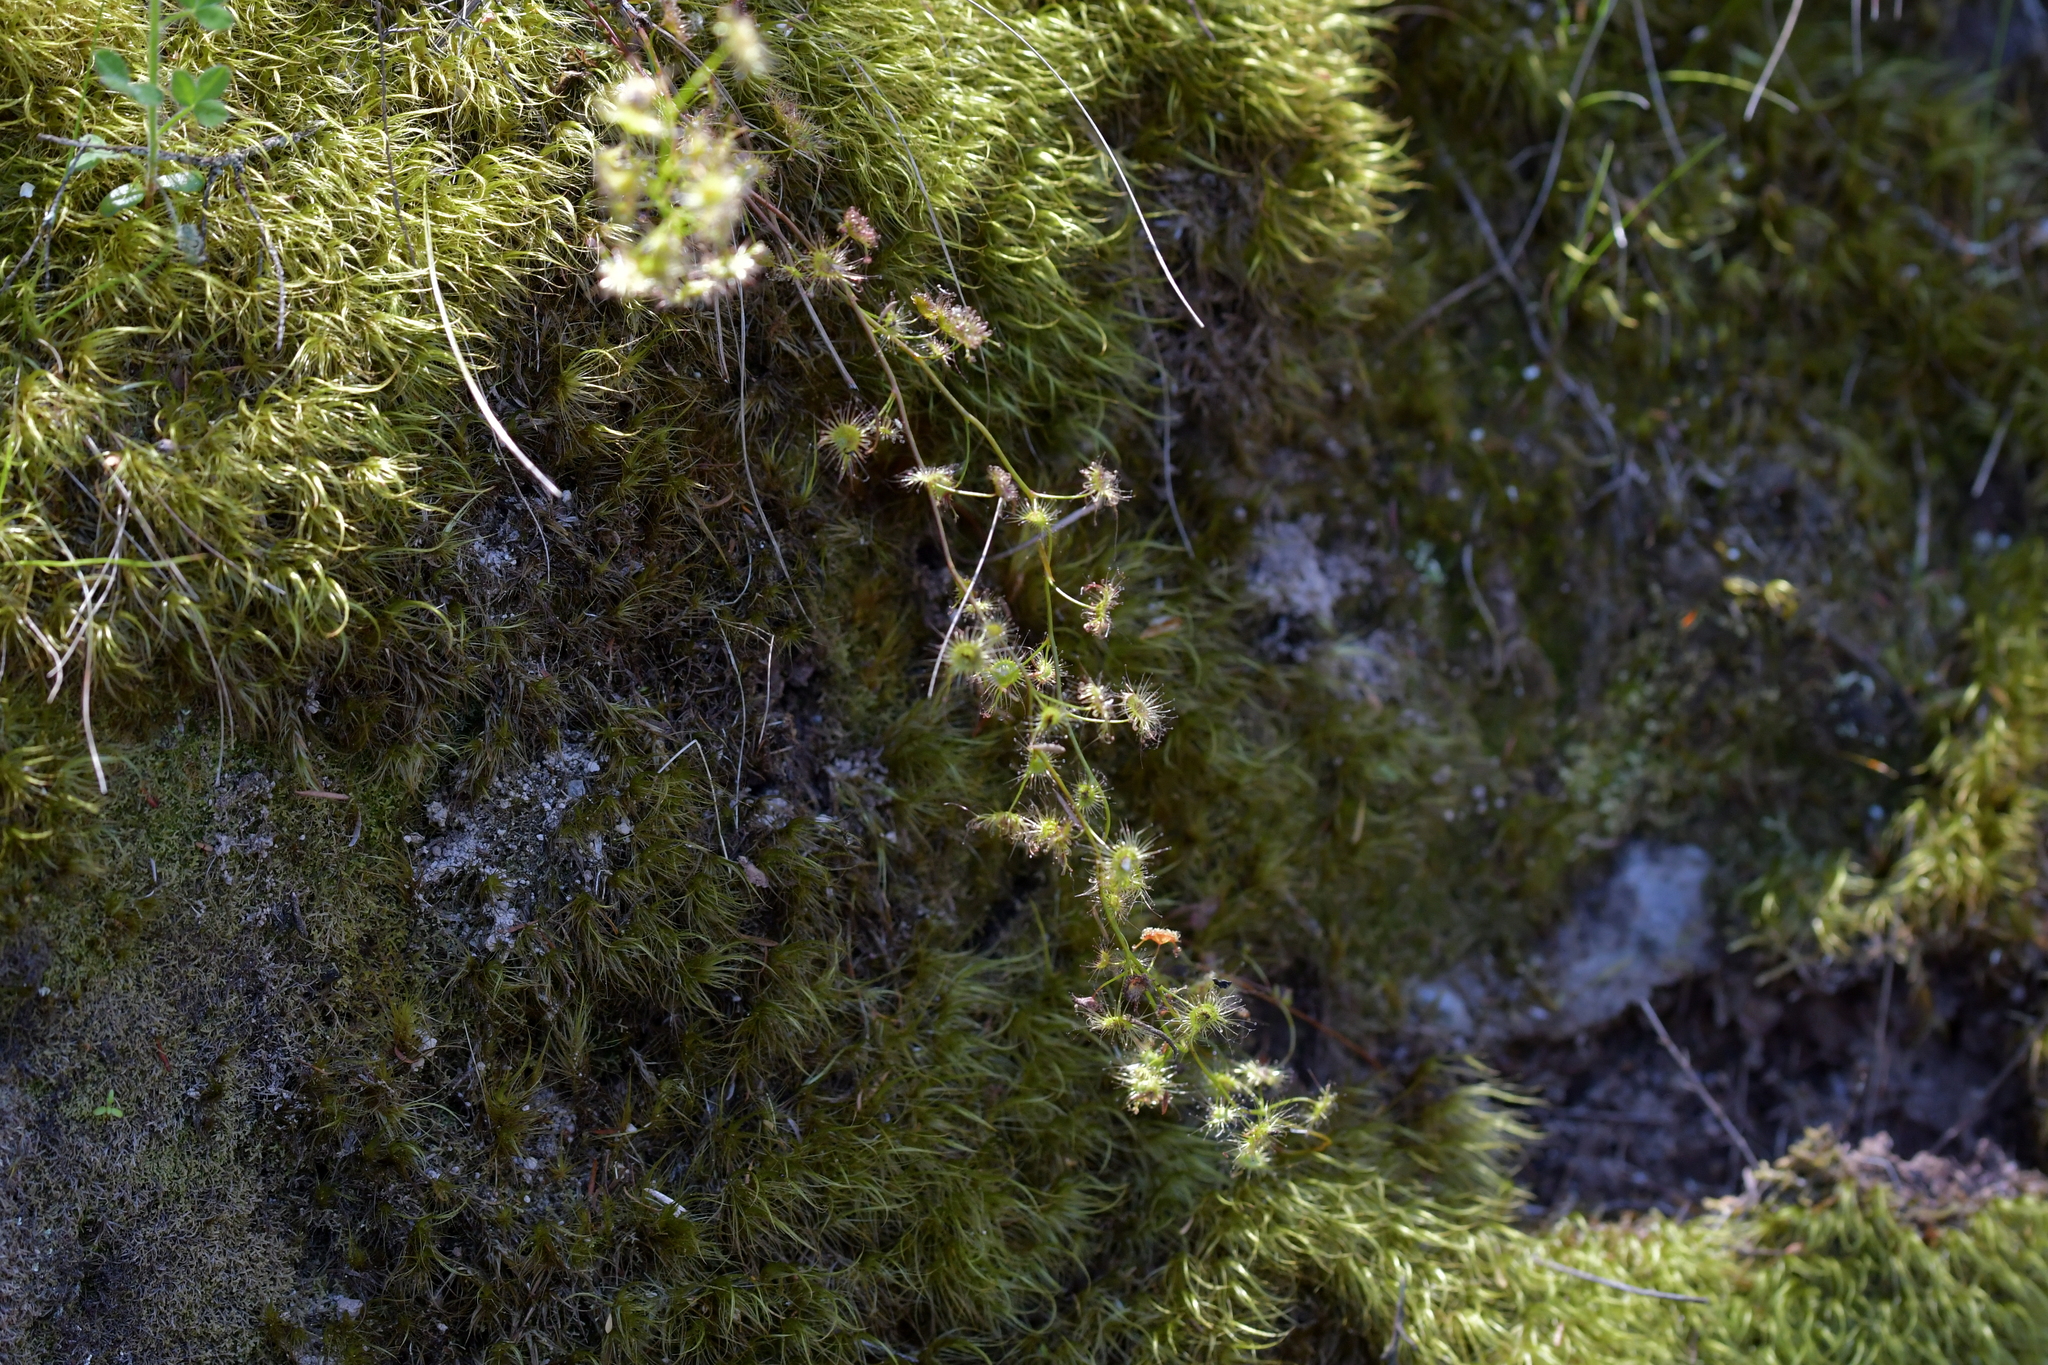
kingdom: Plantae
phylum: Tracheophyta
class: Magnoliopsida
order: Caryophyllales
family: Droseraceae
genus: Drosera
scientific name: Drosera peltata
